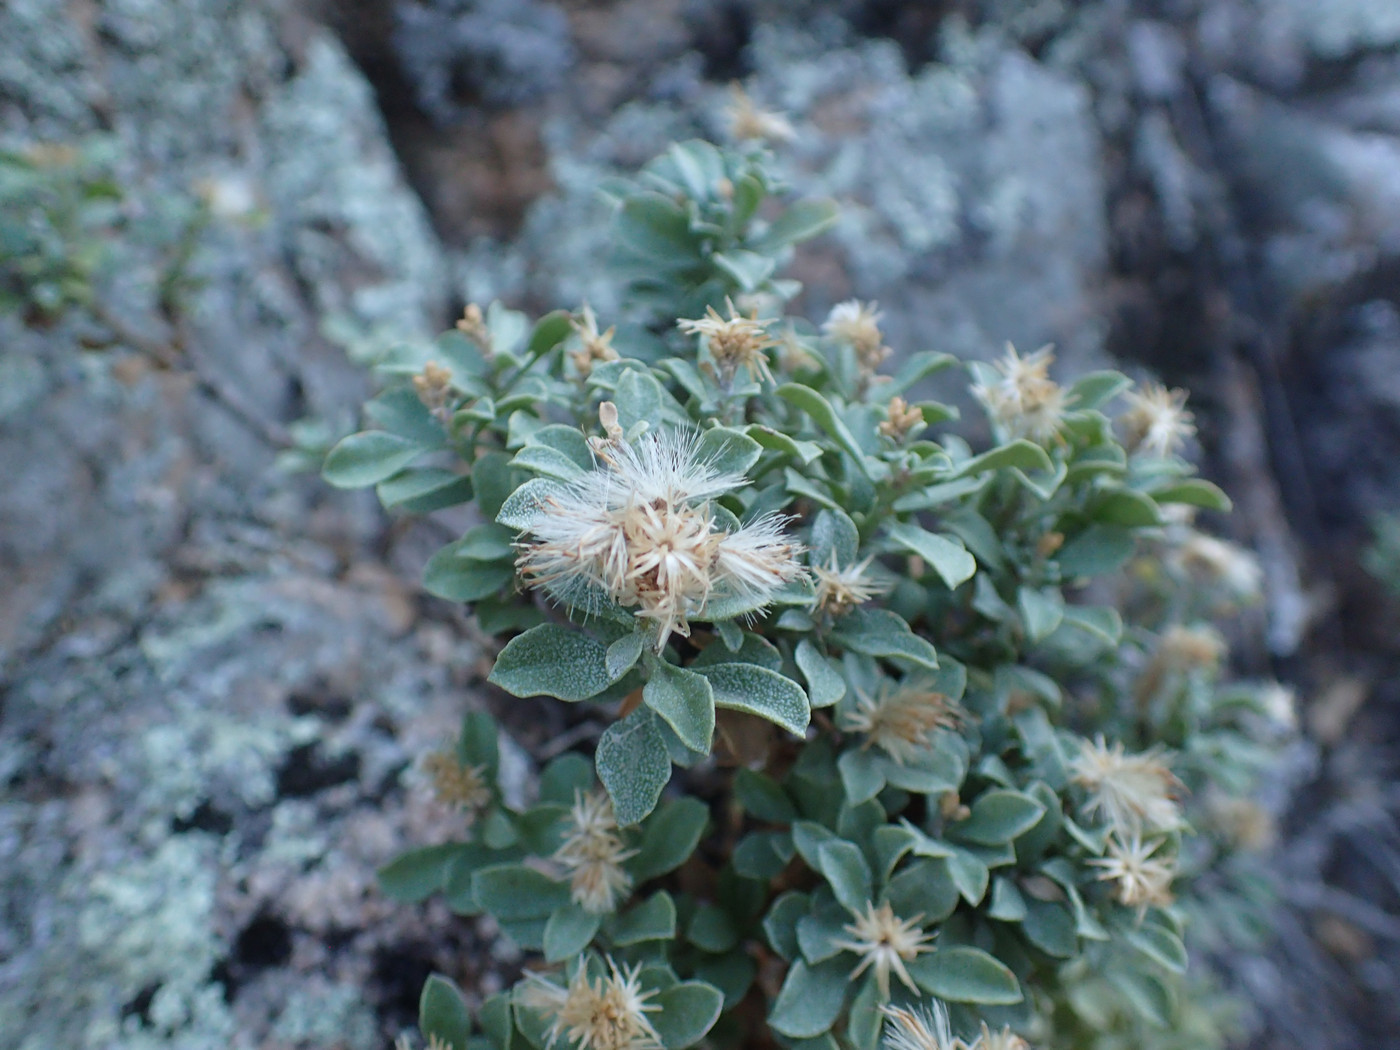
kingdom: Plantae
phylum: Tracheophyta
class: Magnoliopsida
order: Asterales
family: Asteraceae
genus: Ericameria
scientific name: Ericameria cuneata
